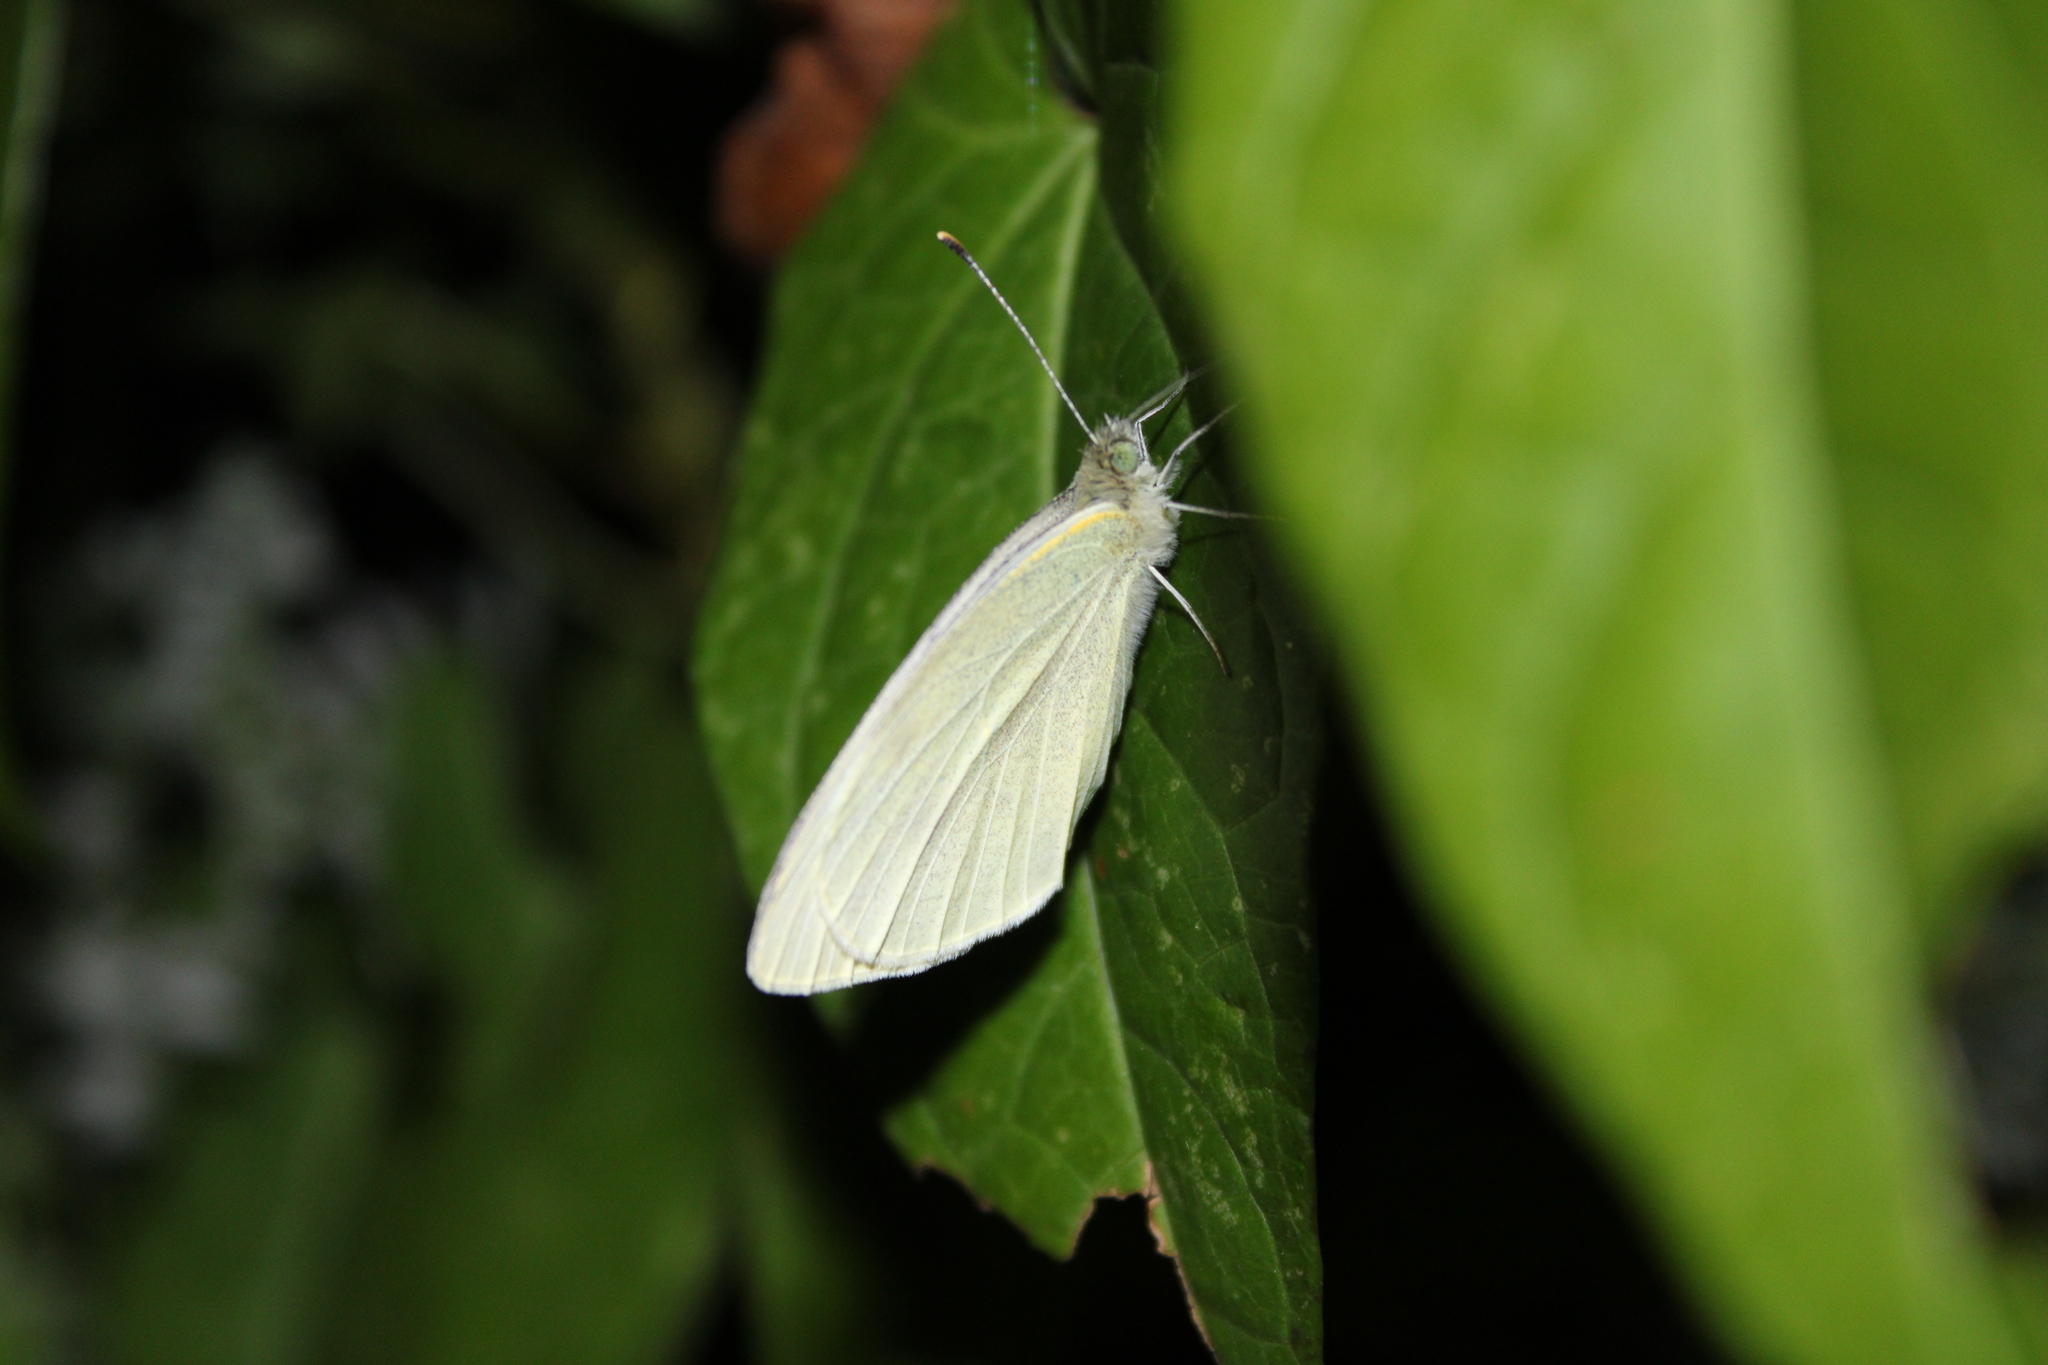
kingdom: Animalia
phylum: Arthropoda
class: Insecta
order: Lepidoptera
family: Pieridae
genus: Pieris
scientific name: Pieris rapae
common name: Small white
